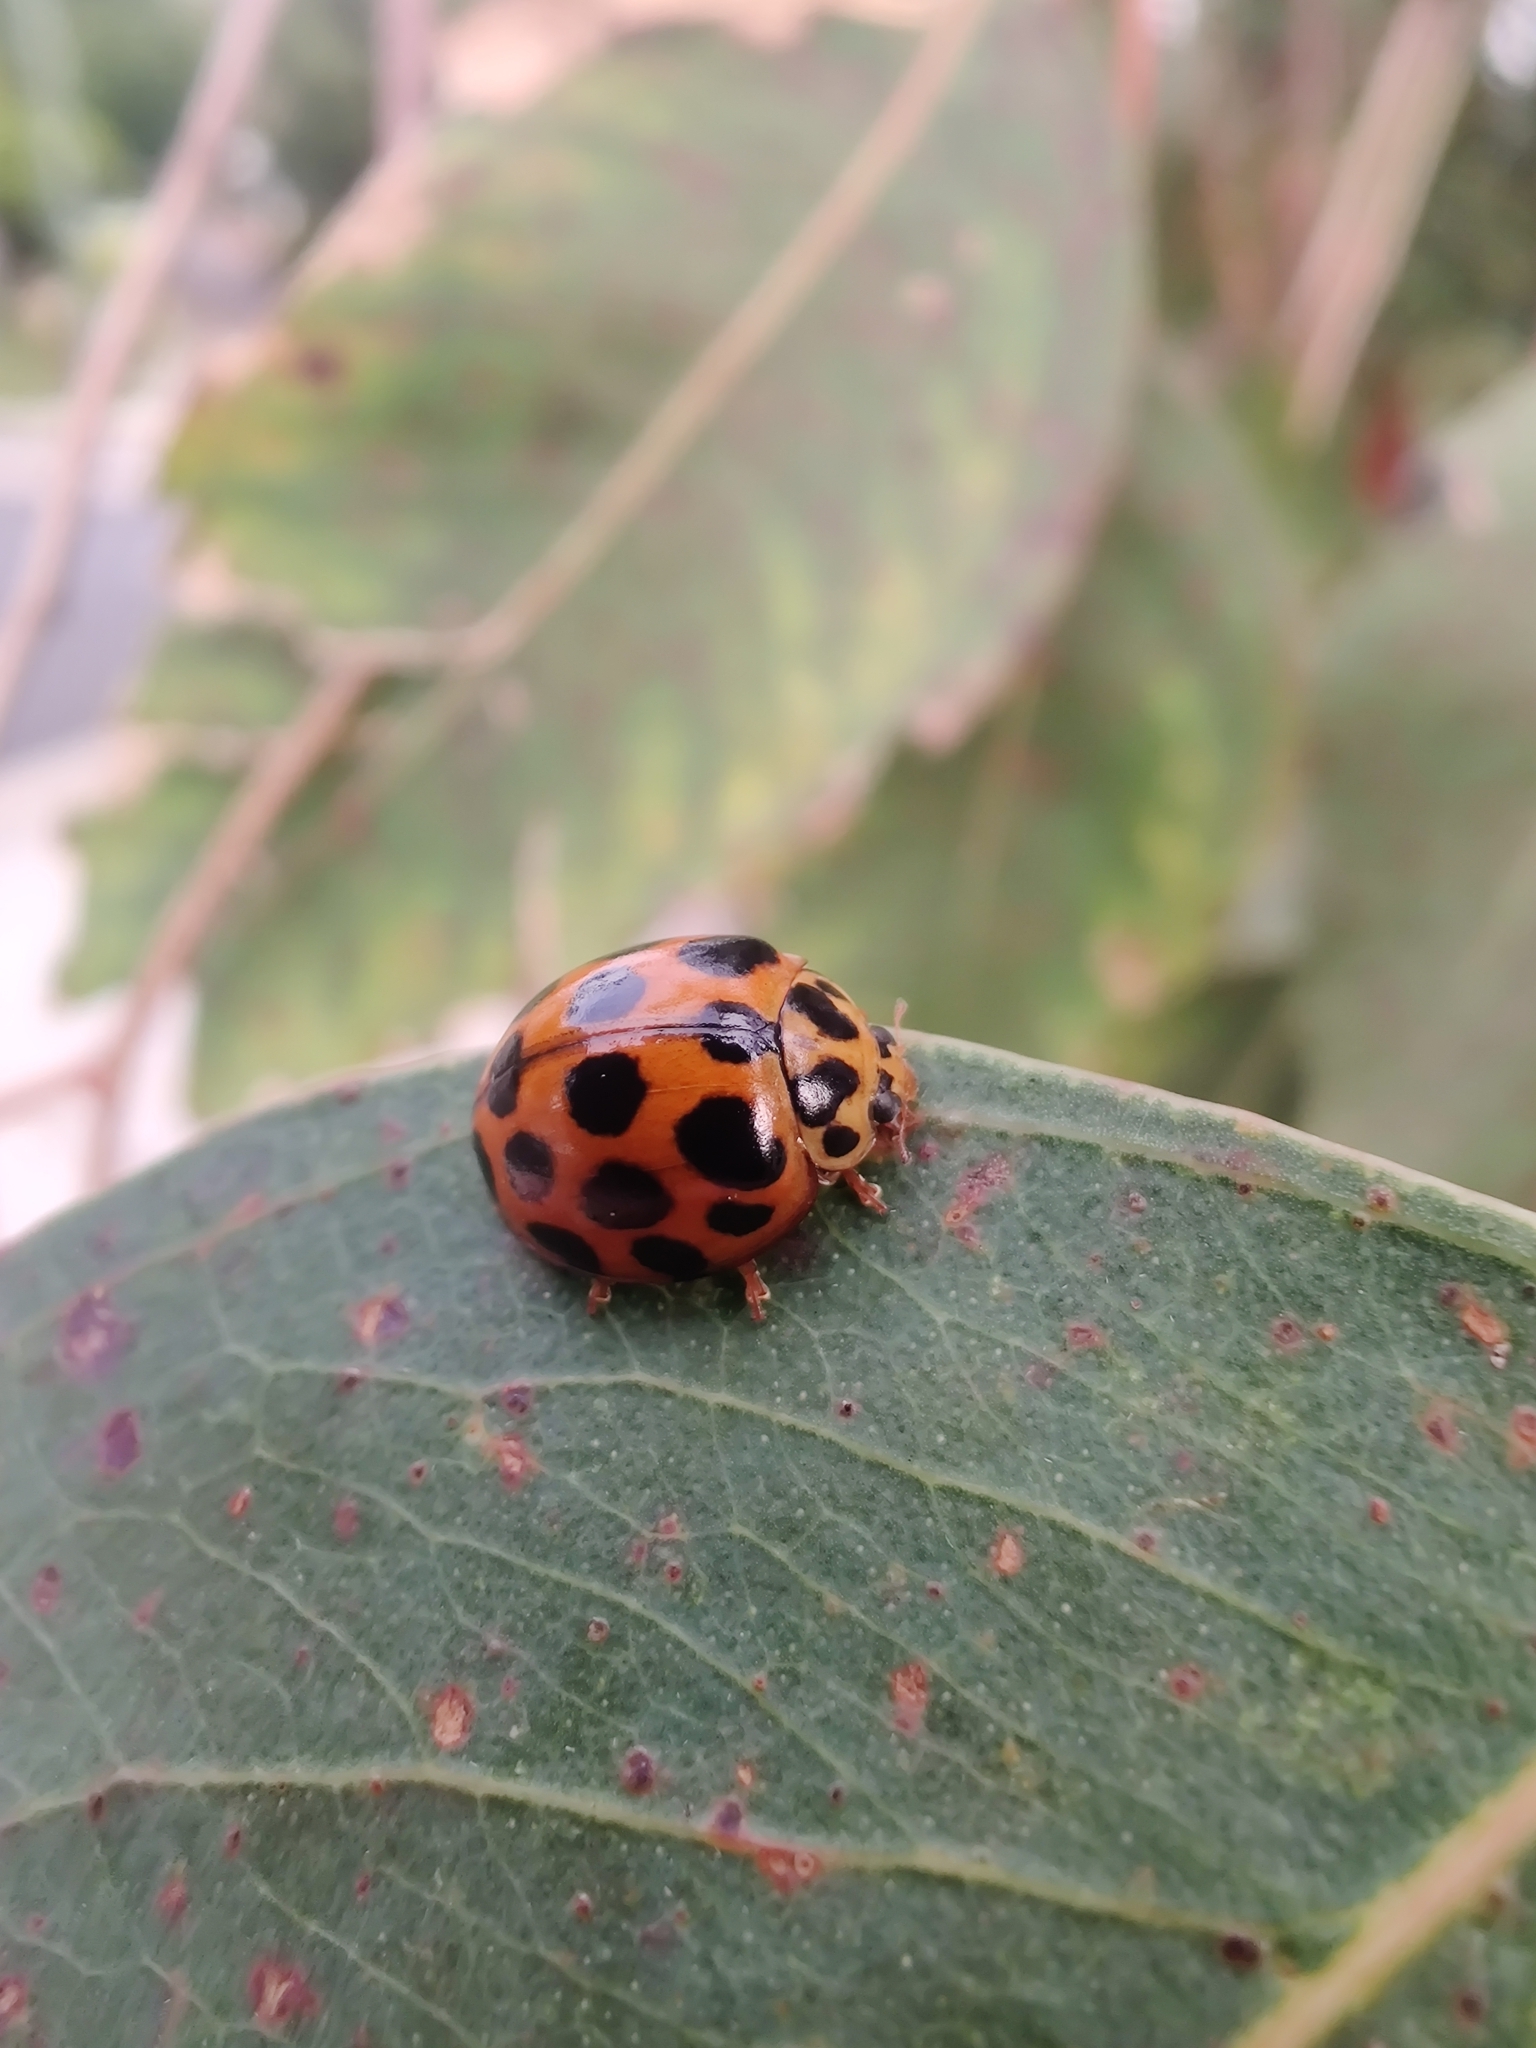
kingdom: Animalia
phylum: Arthropoda
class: Insecta
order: Coleoptera
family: Coccinellidae
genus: Harmonia
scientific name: Harmonia conformis
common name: Common spotted ladybird beetle
